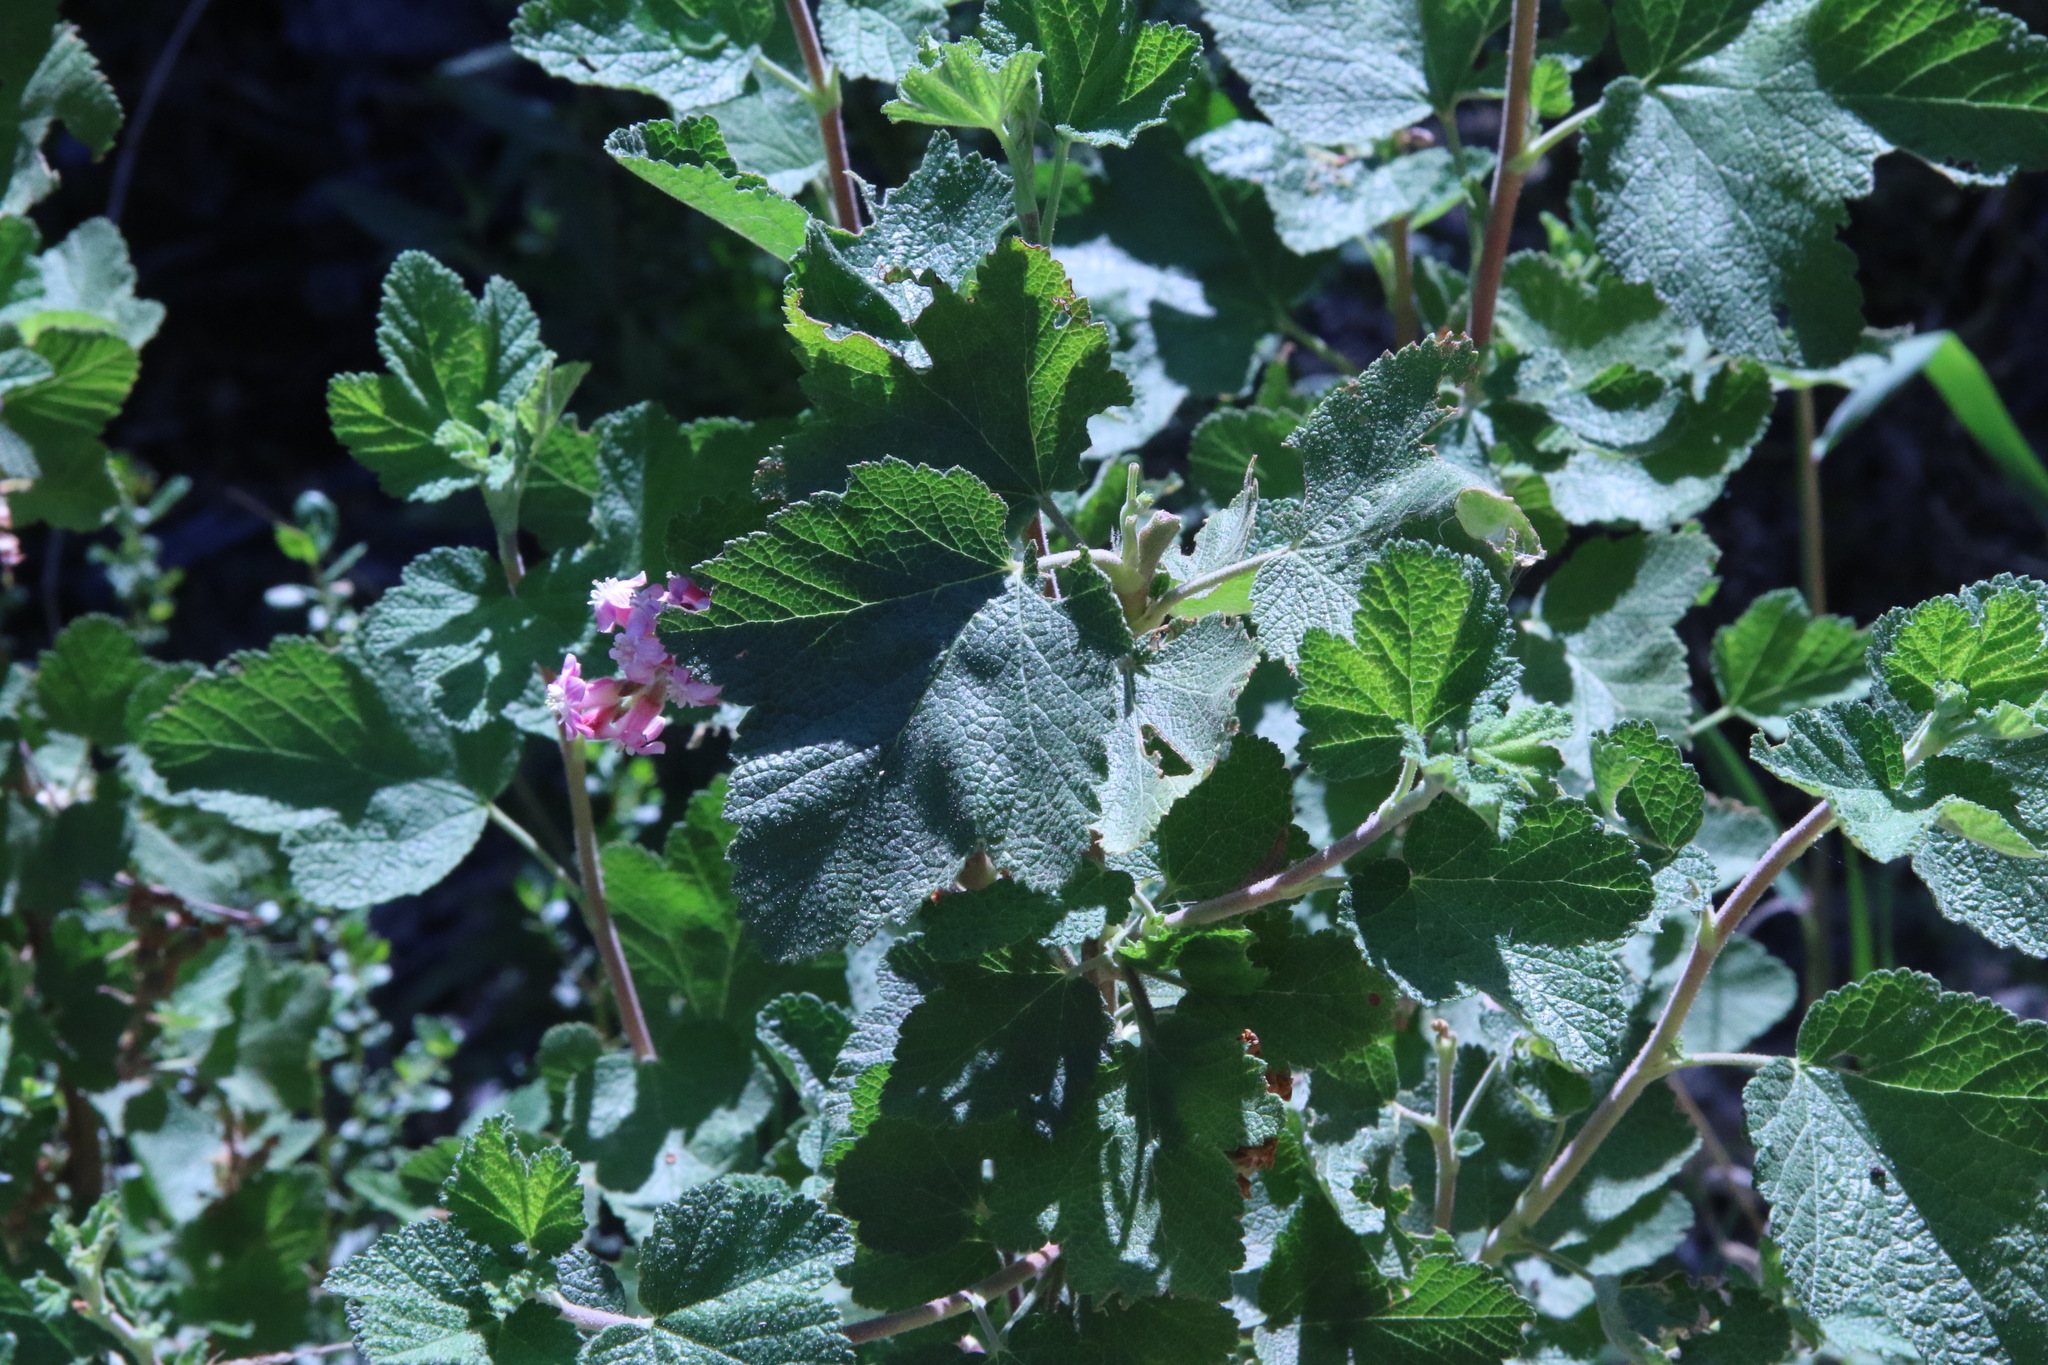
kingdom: Plantae
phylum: Tracheophyta
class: Magnoliopsida
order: Saxifragales
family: Grossulariaceae
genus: Ribes
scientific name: Ribes malvaceum
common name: Chaparral currant
